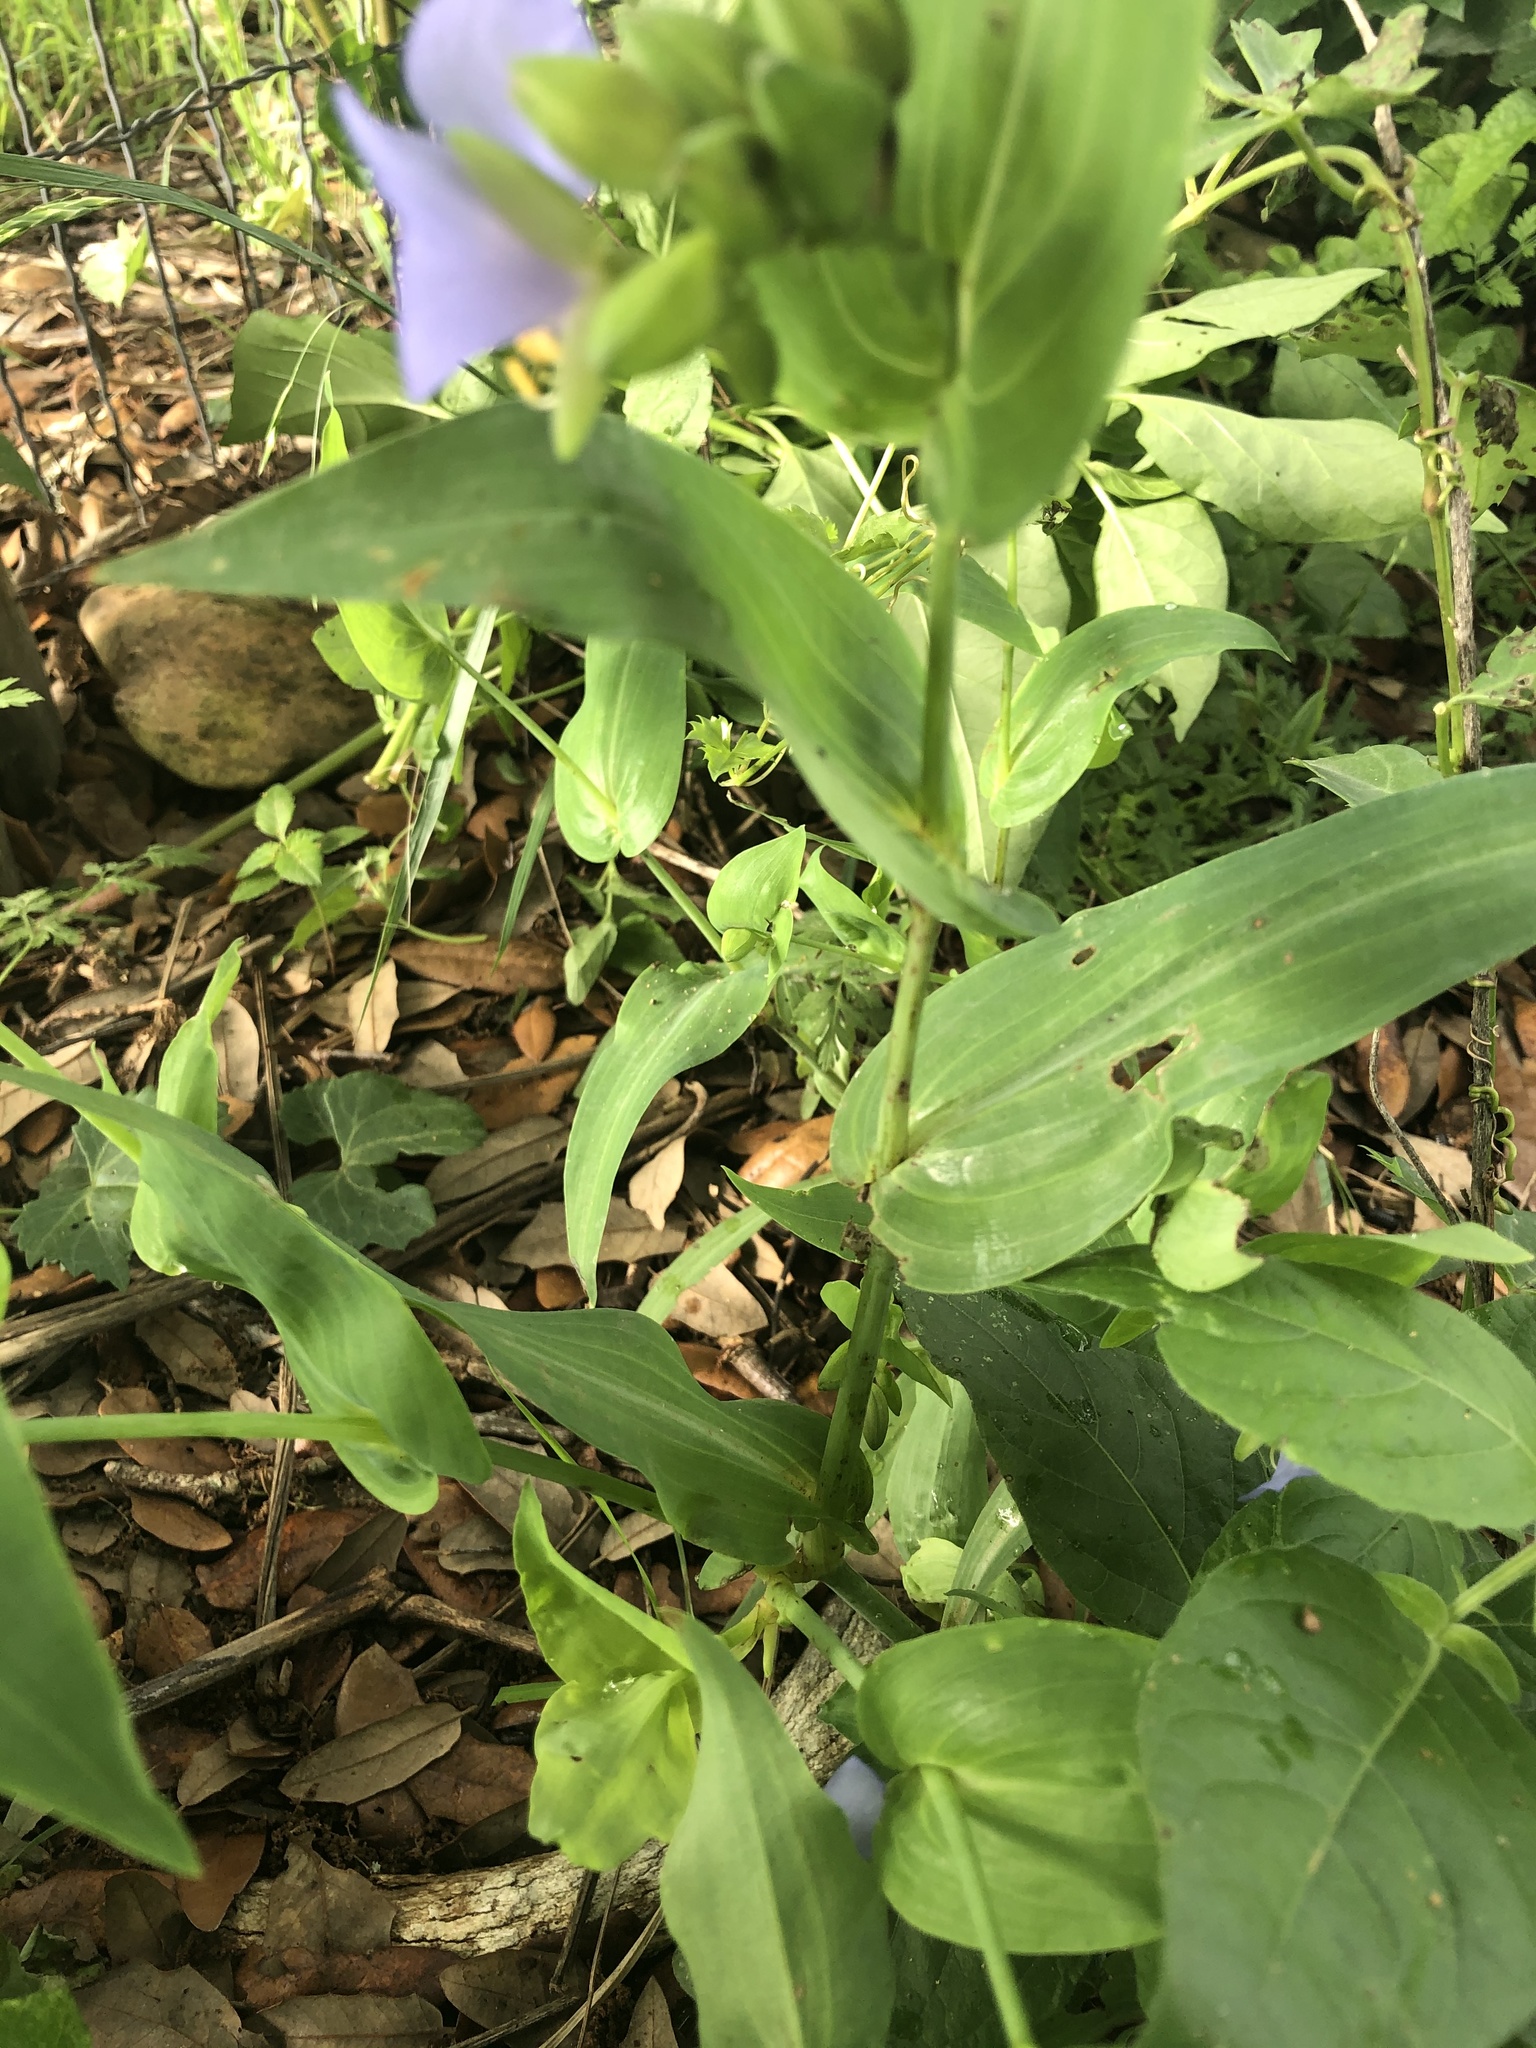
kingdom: Plantae
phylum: Tracheophyta
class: Liliopsida
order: Commelinales
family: Commelinaceae
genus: Tinantia
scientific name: Tinantia anomala
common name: False dayflower
